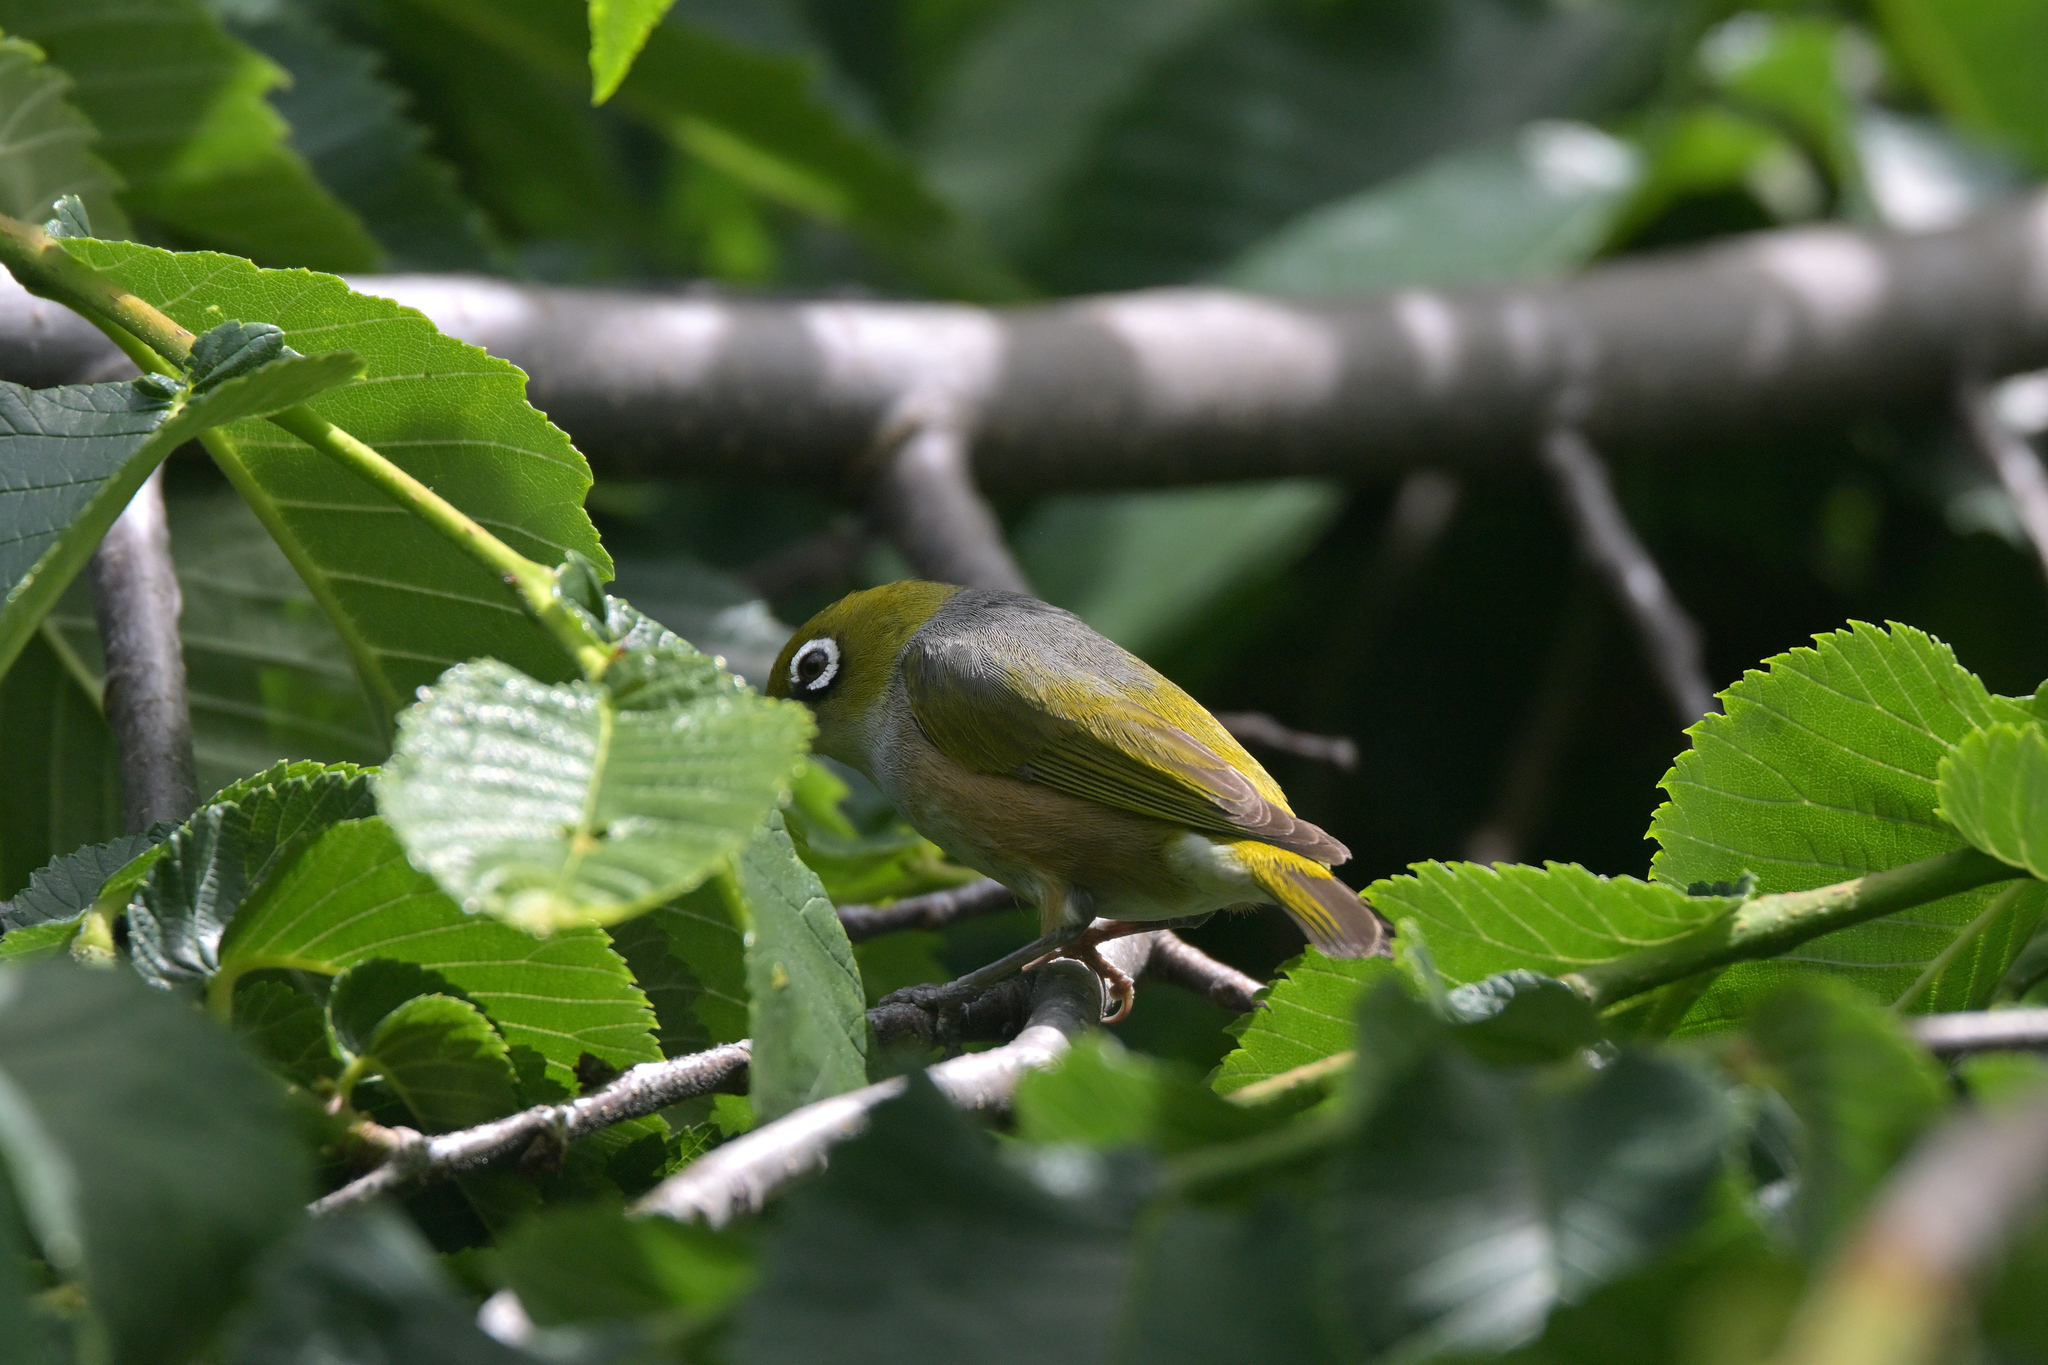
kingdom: Animalia
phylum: Chordata
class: Aves
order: Passeriformes
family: Zosteropidae
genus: Zosterops
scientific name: Zosterops lateralis
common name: Silvereye
